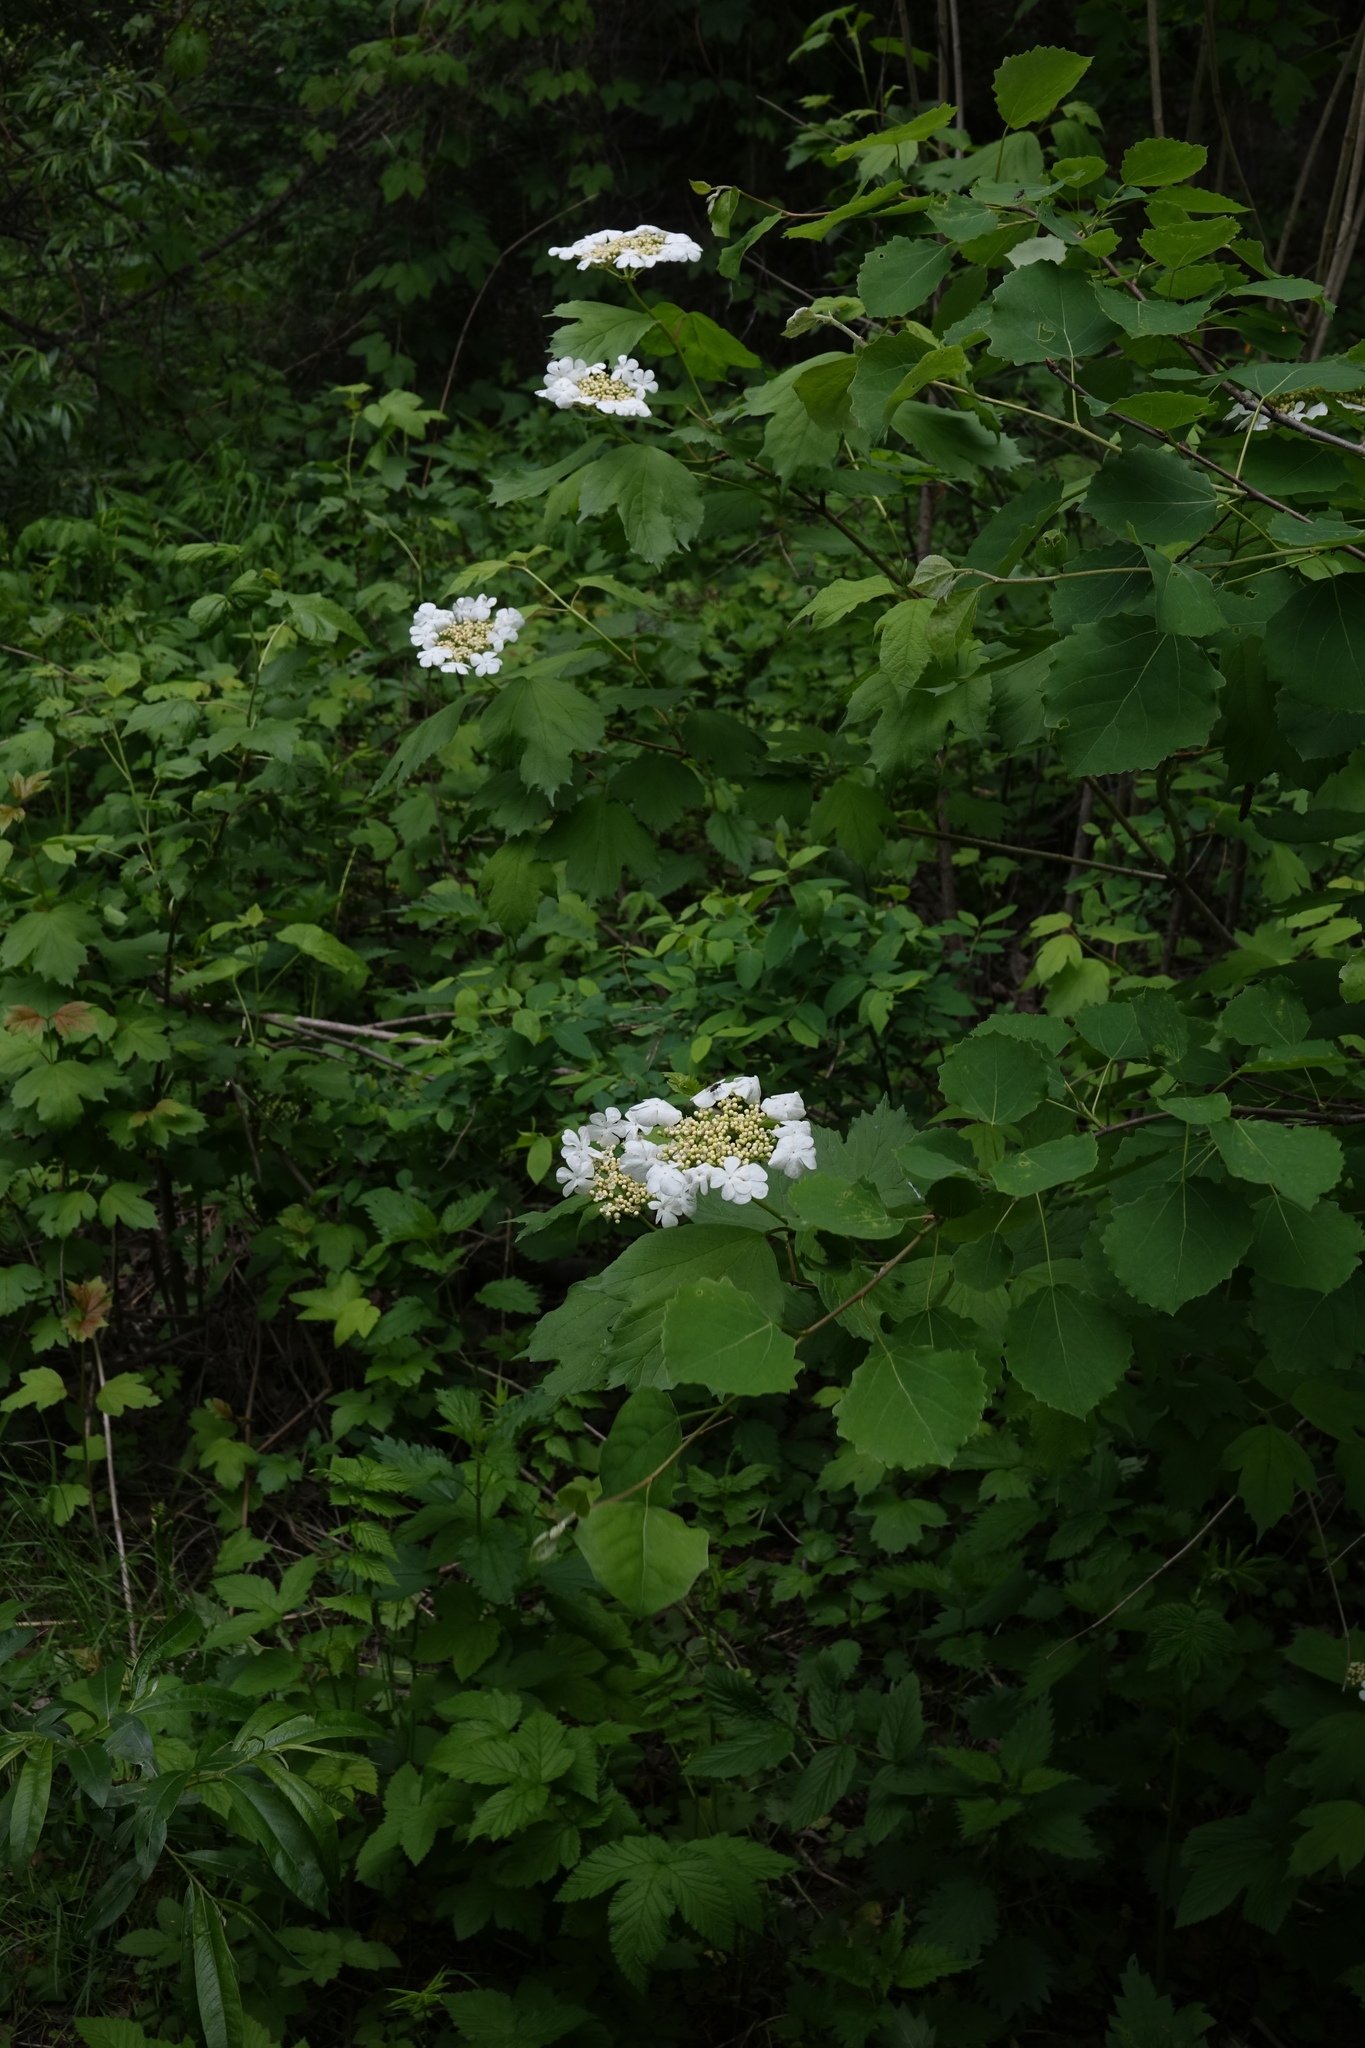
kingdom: Plantae
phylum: Tracheophyta
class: Magnoliopsida
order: Dipsacales
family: Viburnaceae
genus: Viburnum
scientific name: Viburnum opulus
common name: Guelder-rose
